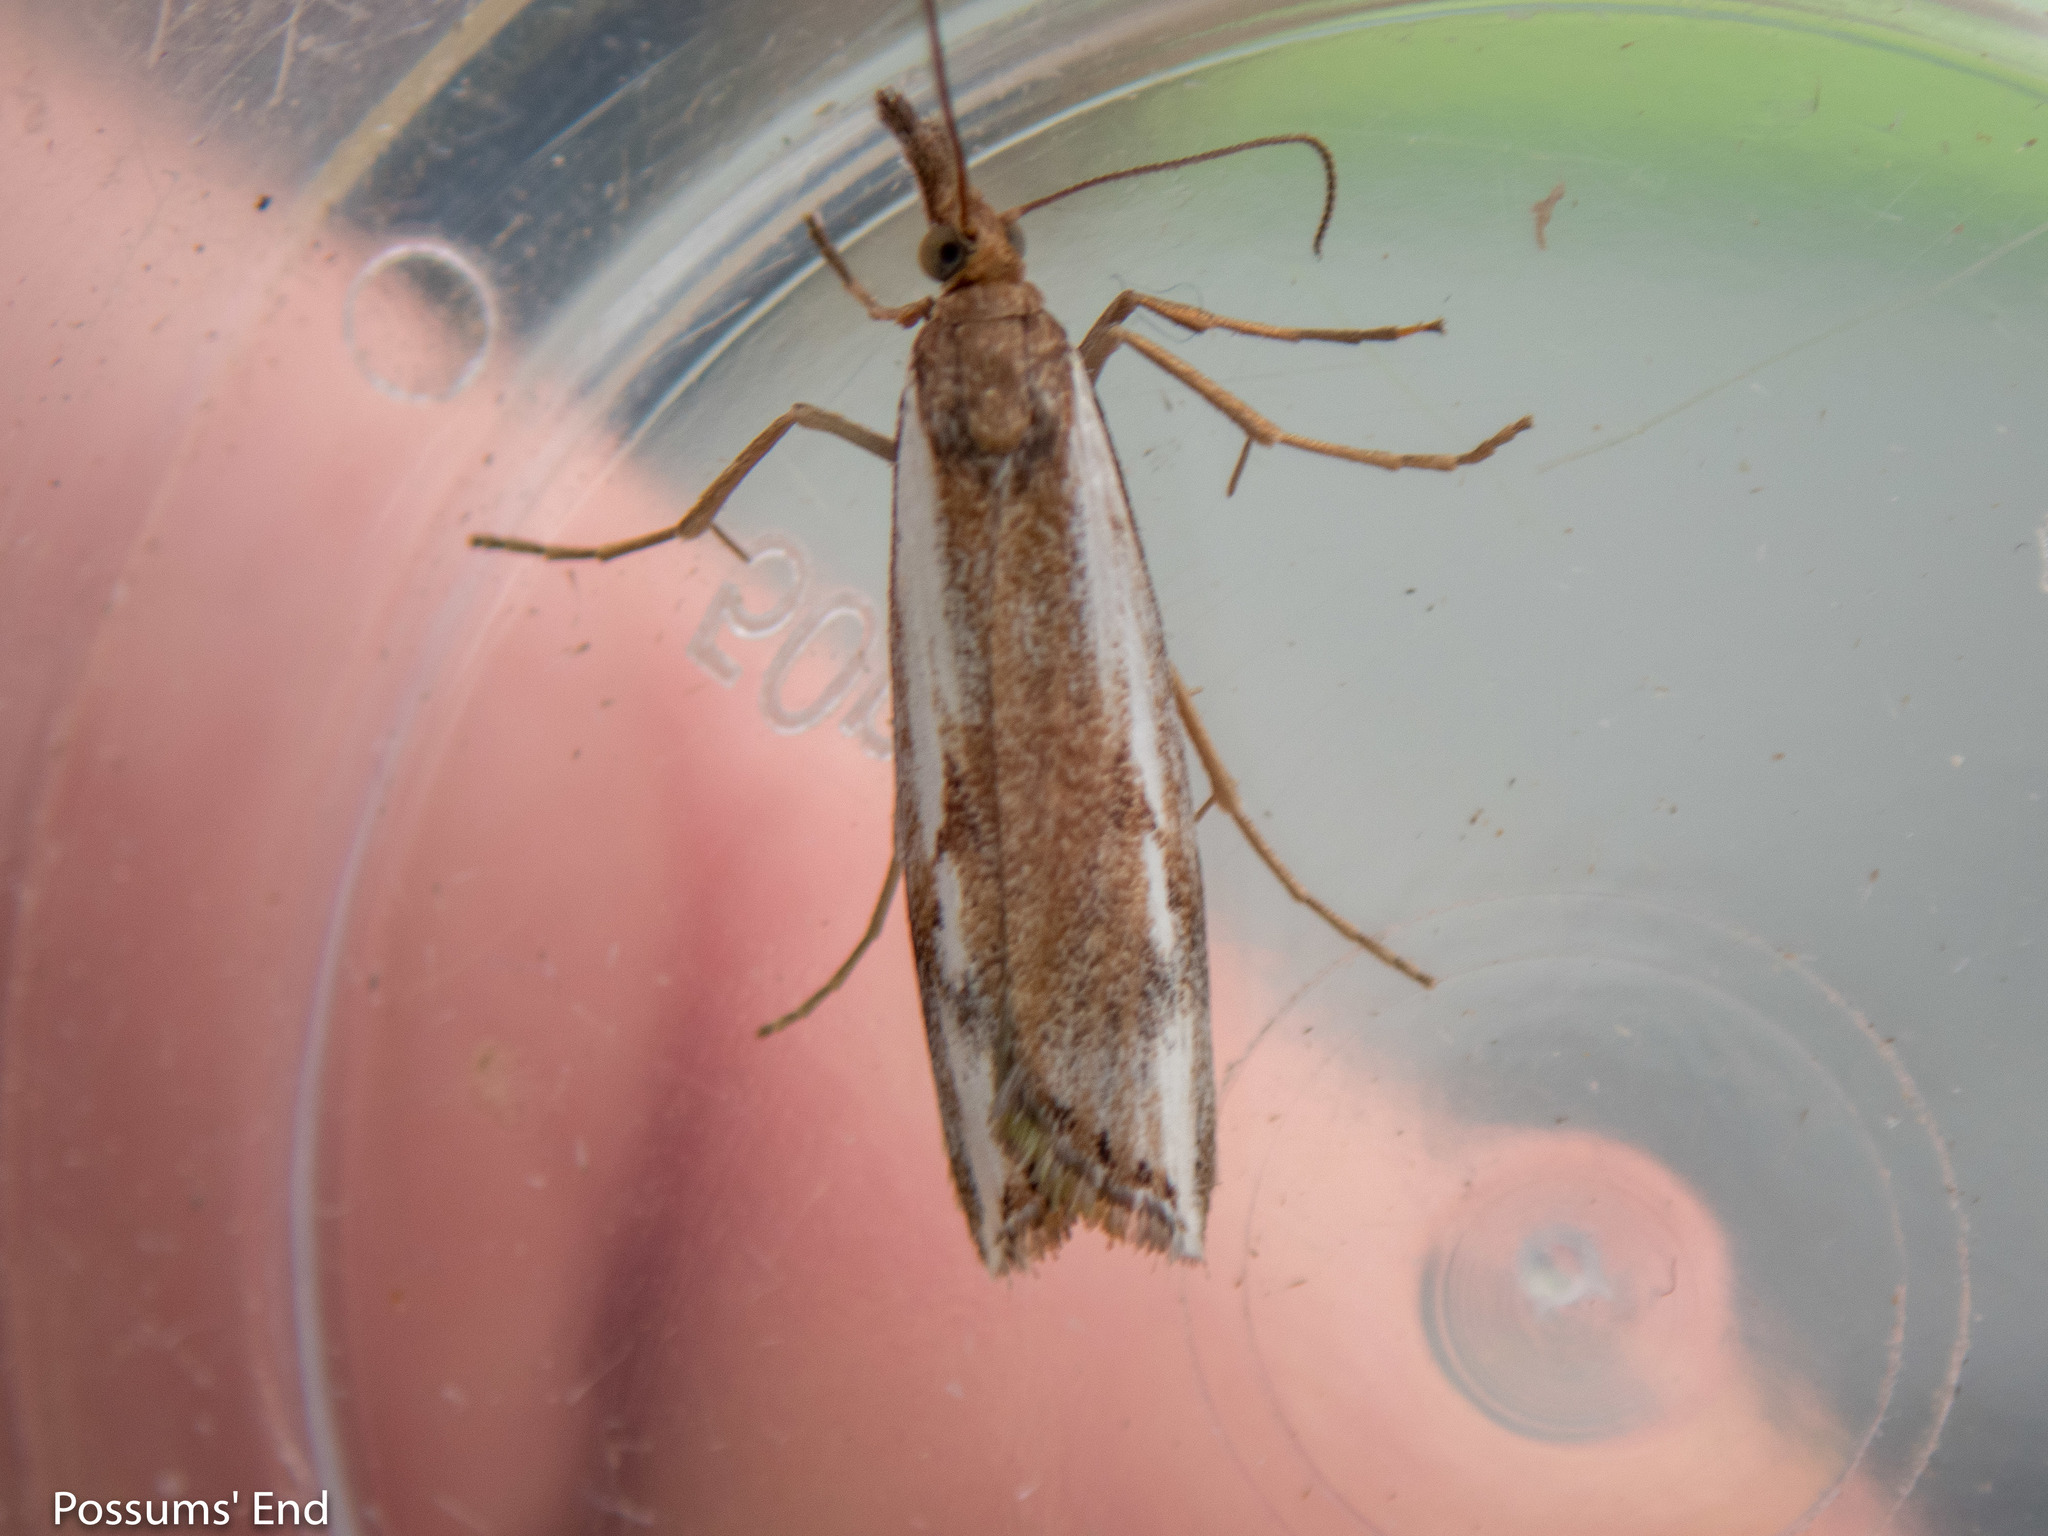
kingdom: Animalia
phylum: Arthropoda
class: Insecta
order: Lepidoptera
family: Crambidae
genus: Orocrambus
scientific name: Orocrambus vulgaris
